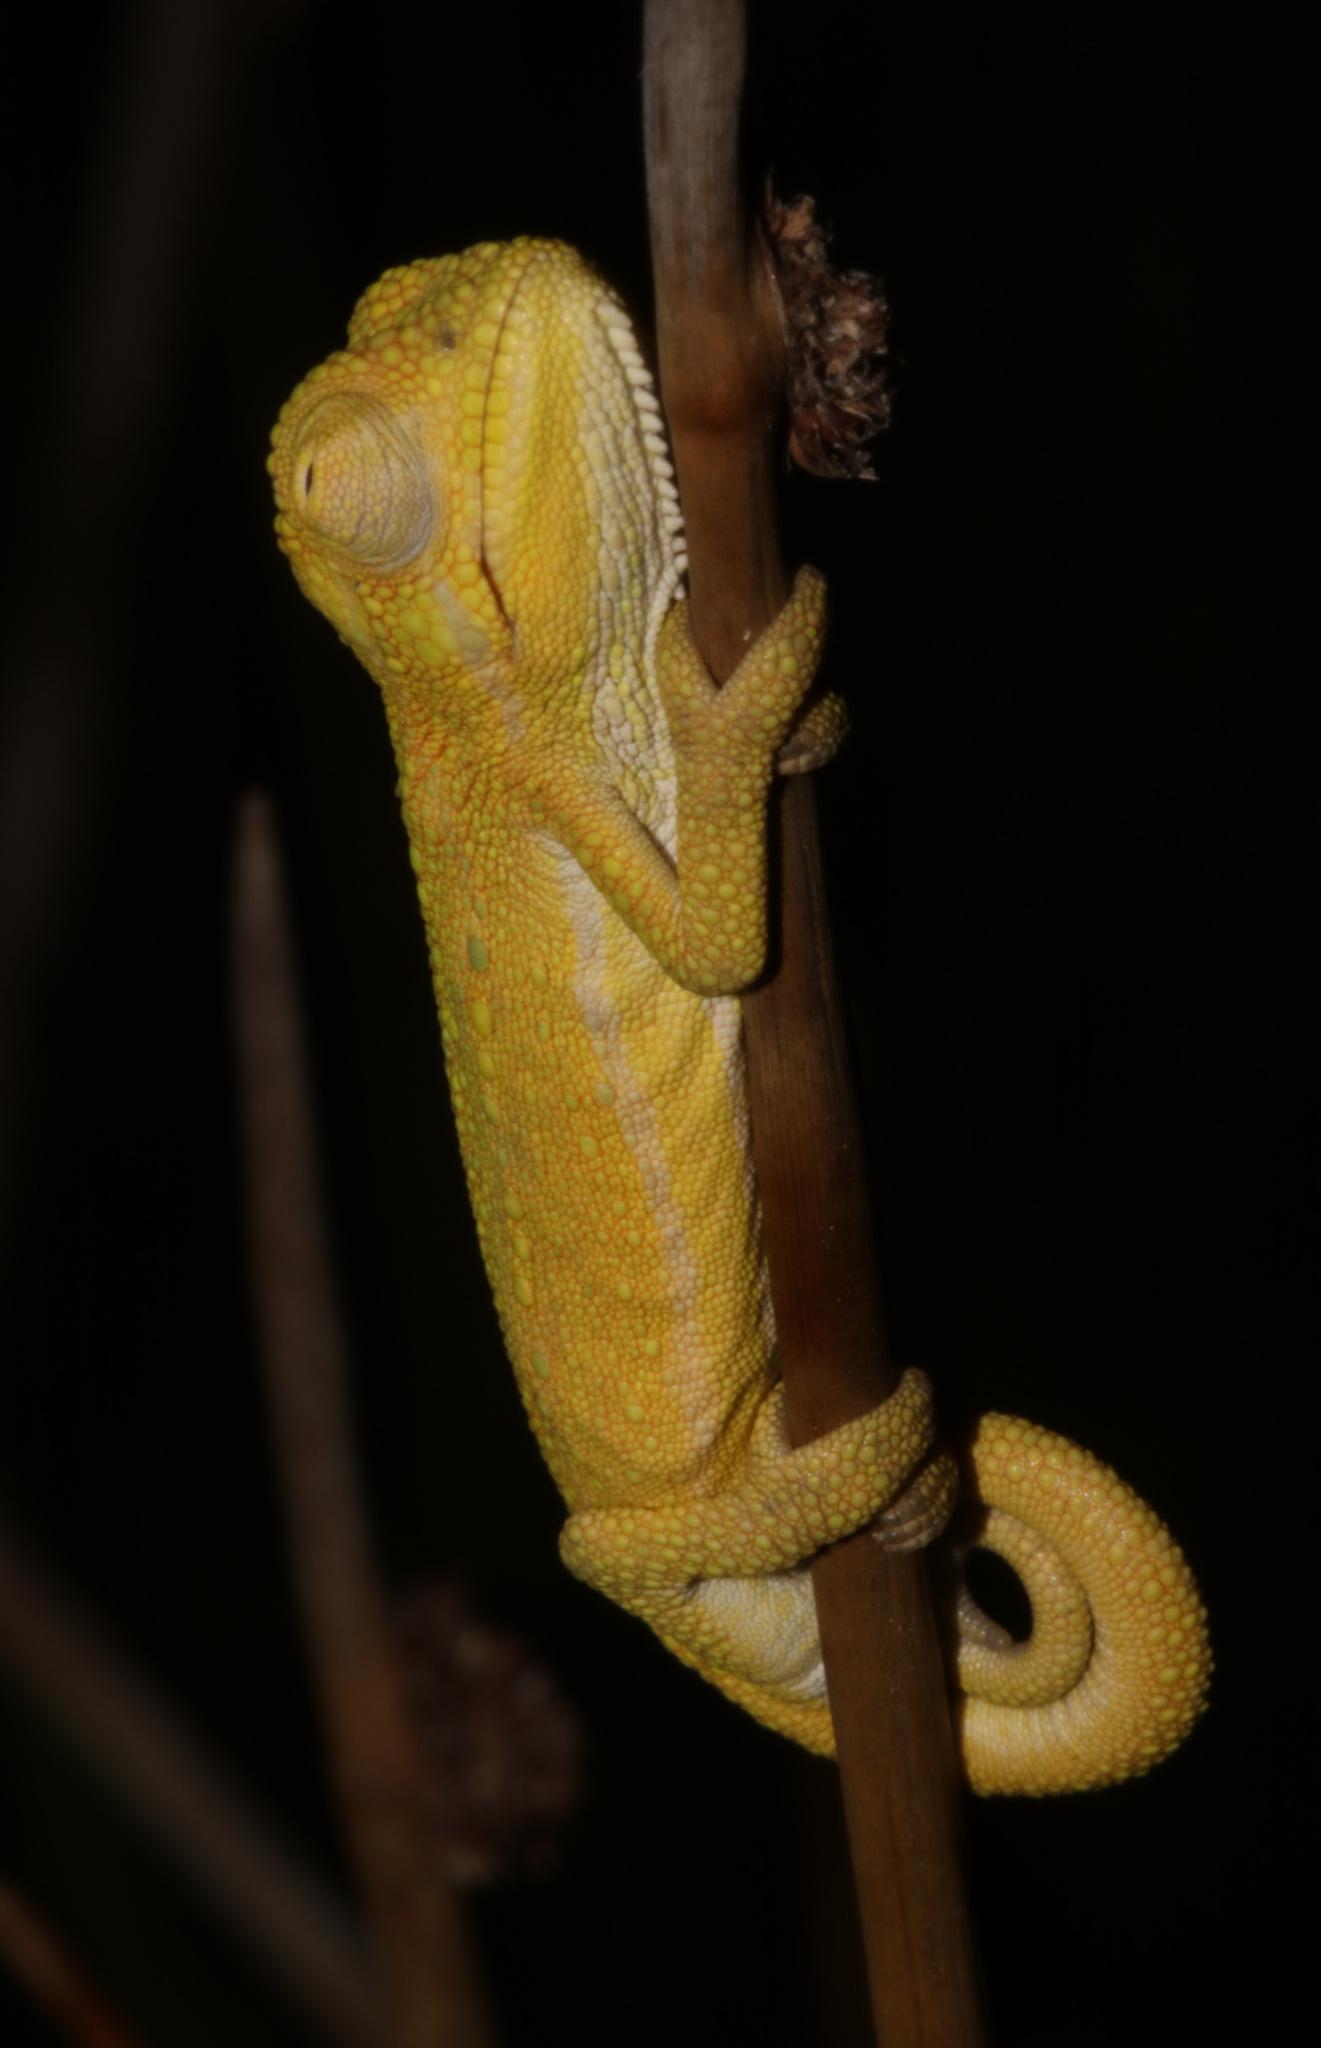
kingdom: Animalia
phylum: Chordata
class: Squamata
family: Chamaeleonidae
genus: Bradypodion
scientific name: Bradypodion pumilum
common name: Cape dwarf chameleon
